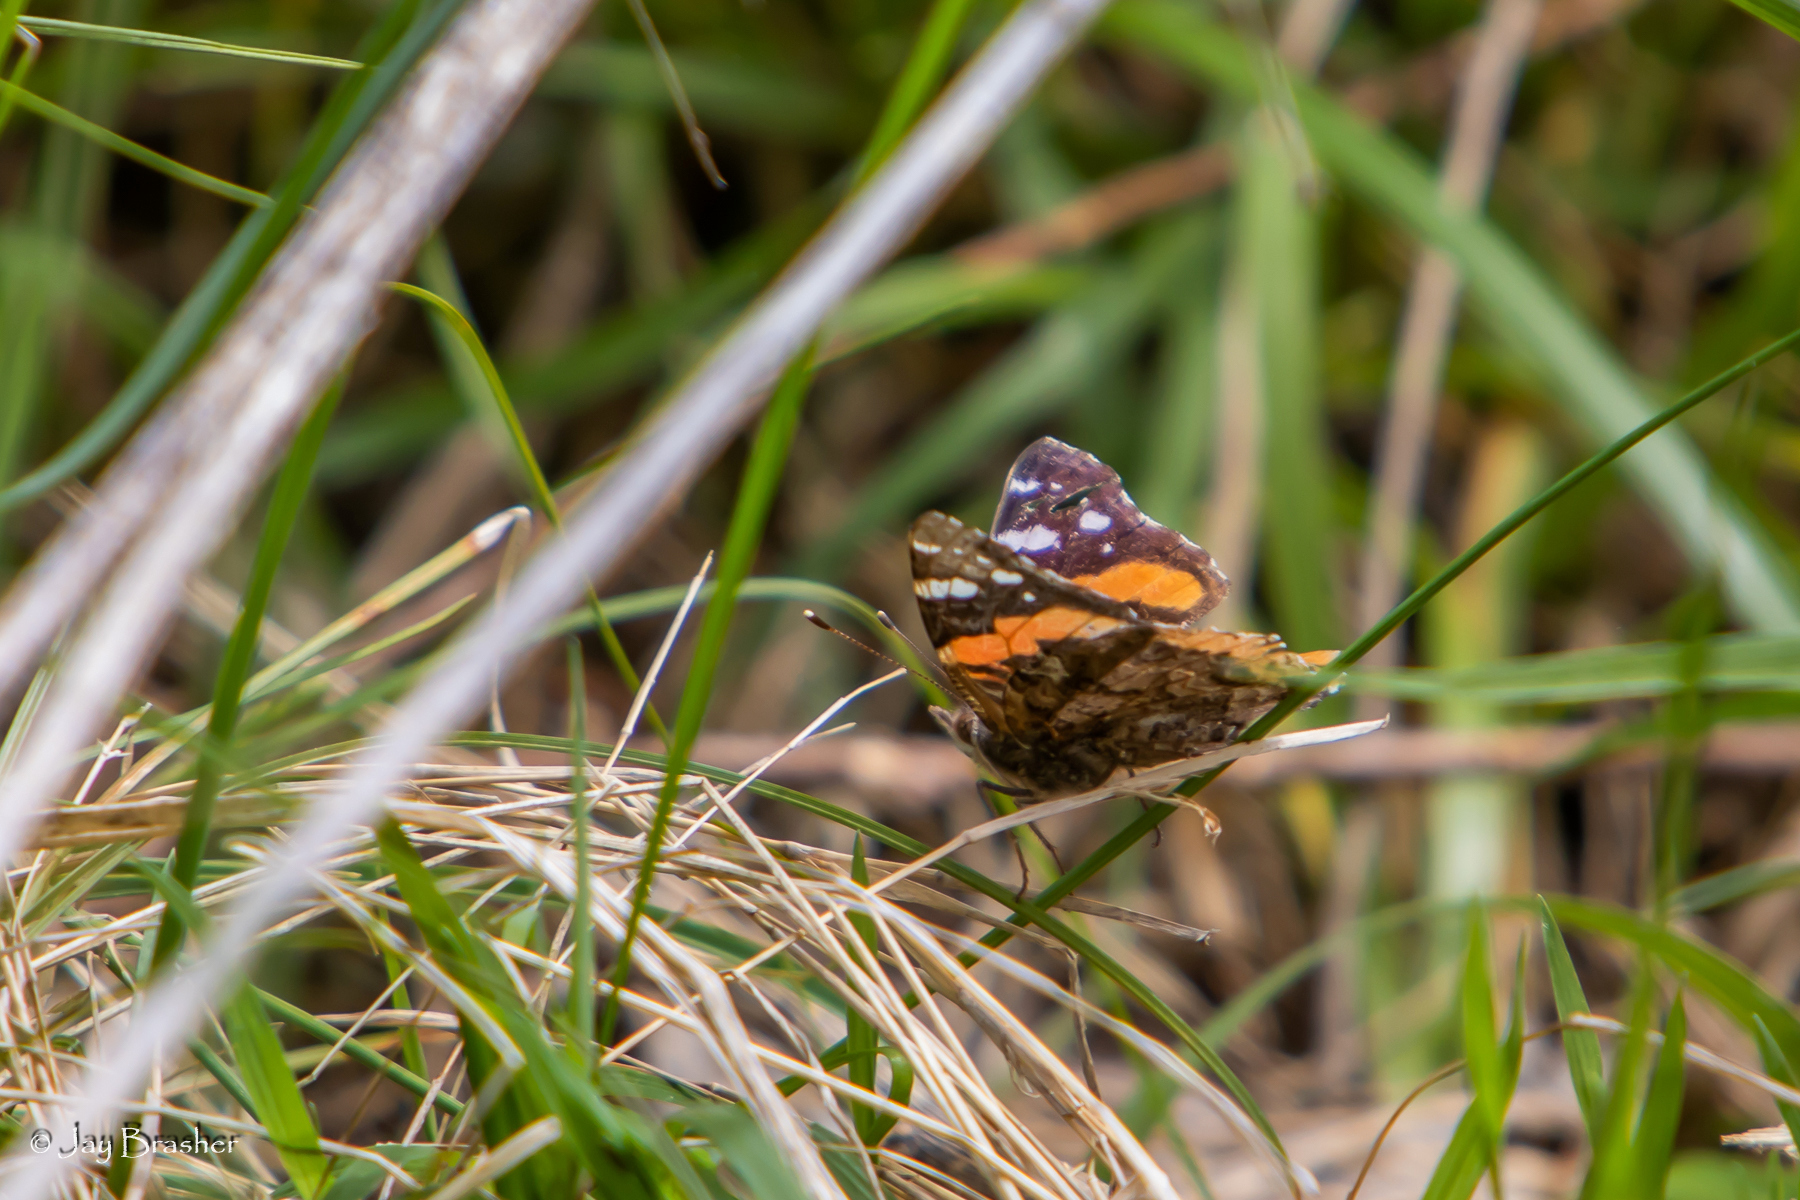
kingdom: Animalia
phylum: Arthropoda
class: Insecta
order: Lepidoptera
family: Nymphalidae
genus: Vanessa
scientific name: Vanessa atalanta
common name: Red admiral
